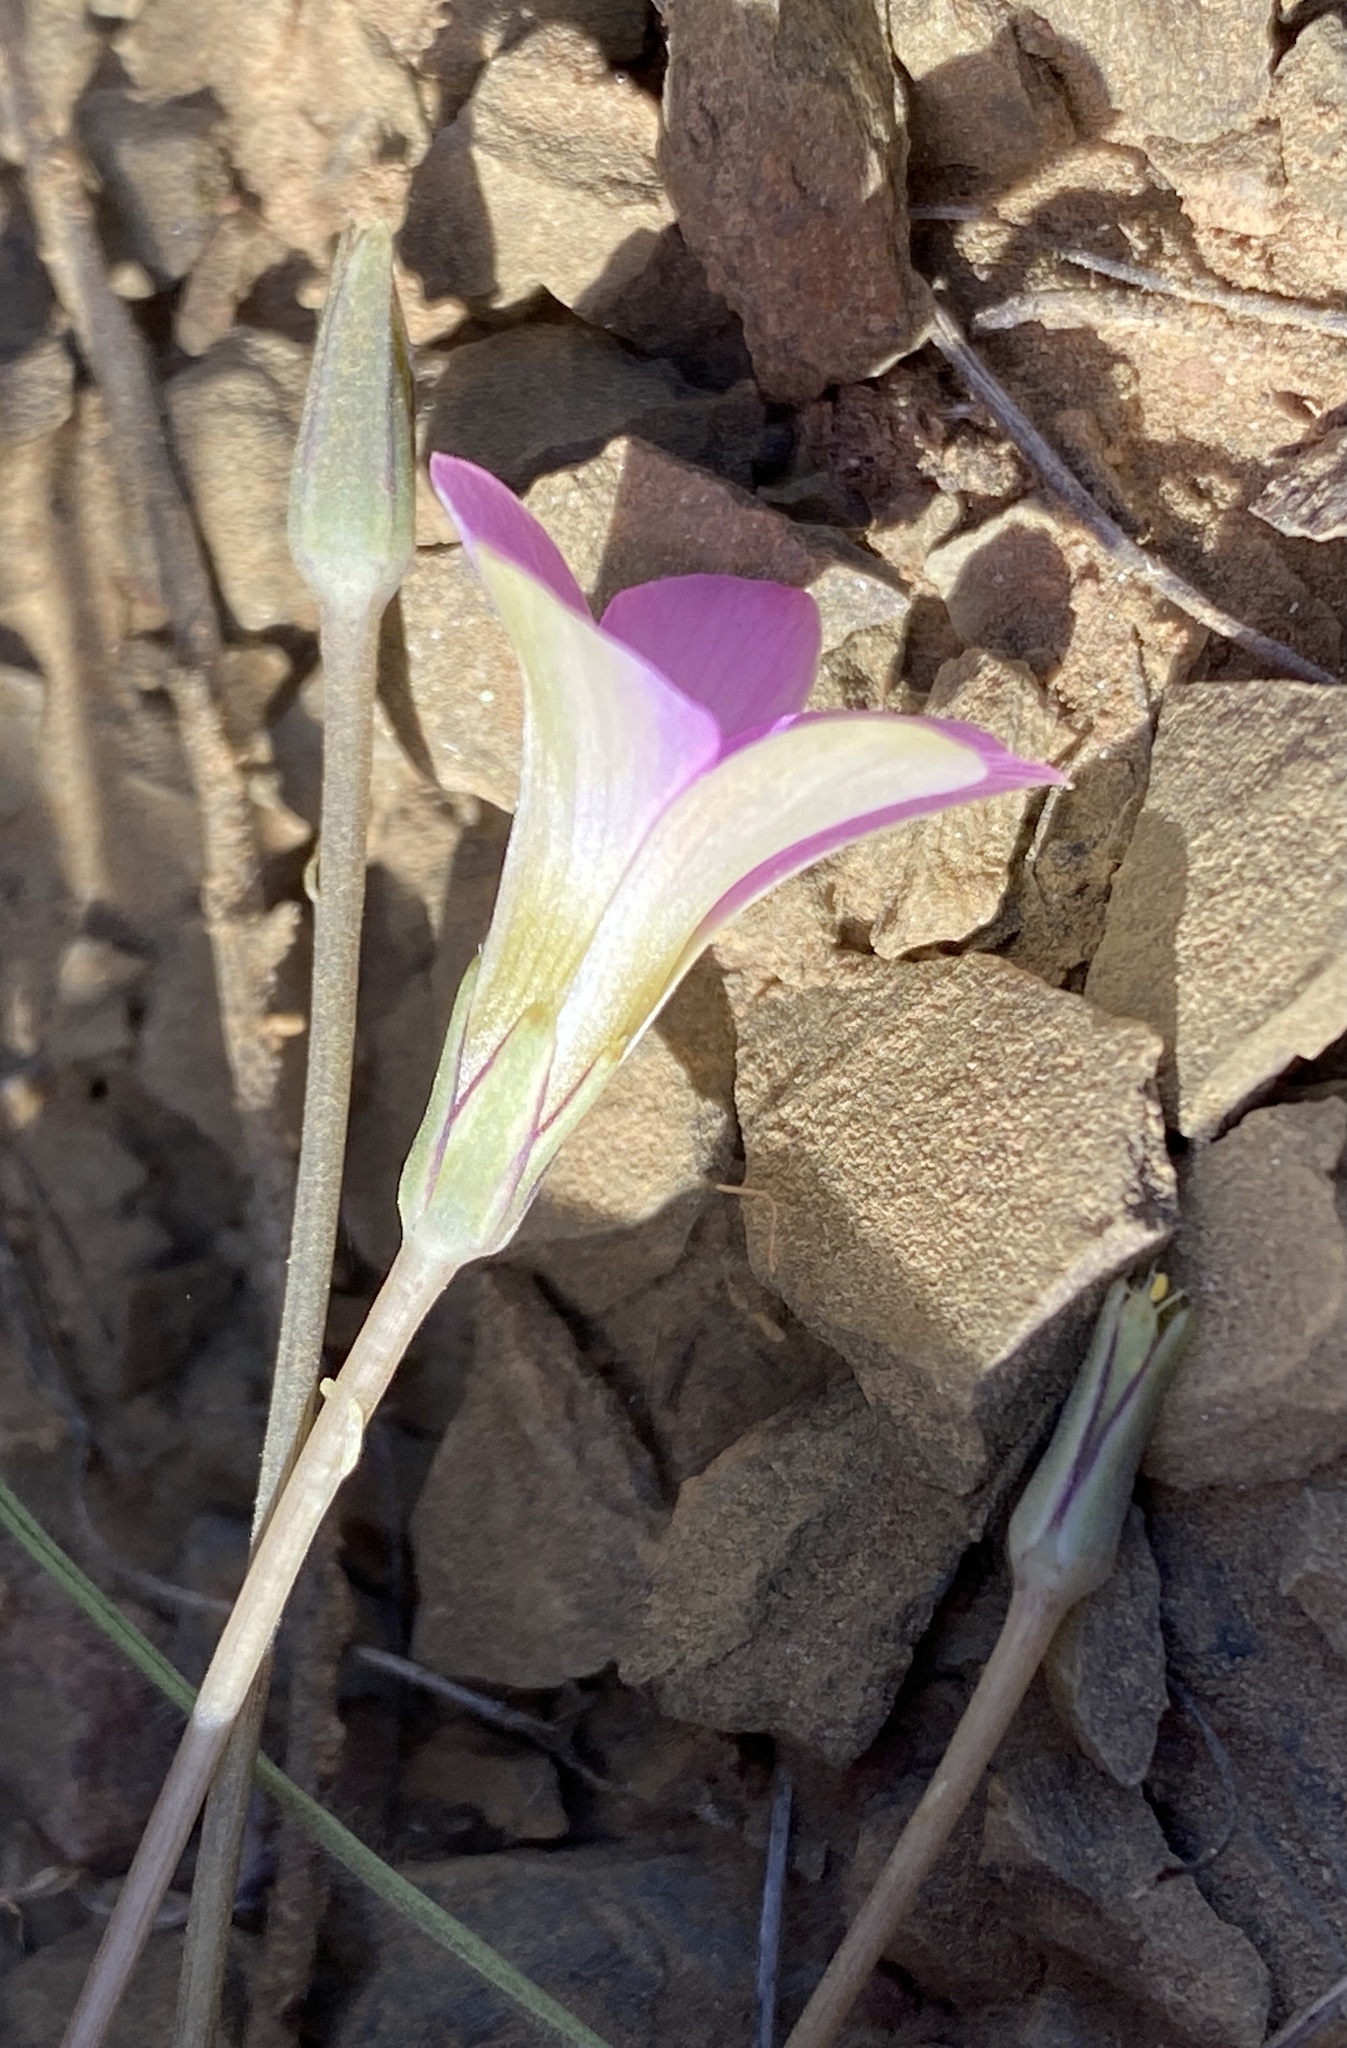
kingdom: Plantae
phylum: Tracheophyta
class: Magnoliopsida
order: Oxalidales
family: Oxalidaceae
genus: Oxalis
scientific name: Oxalis pocockiae
